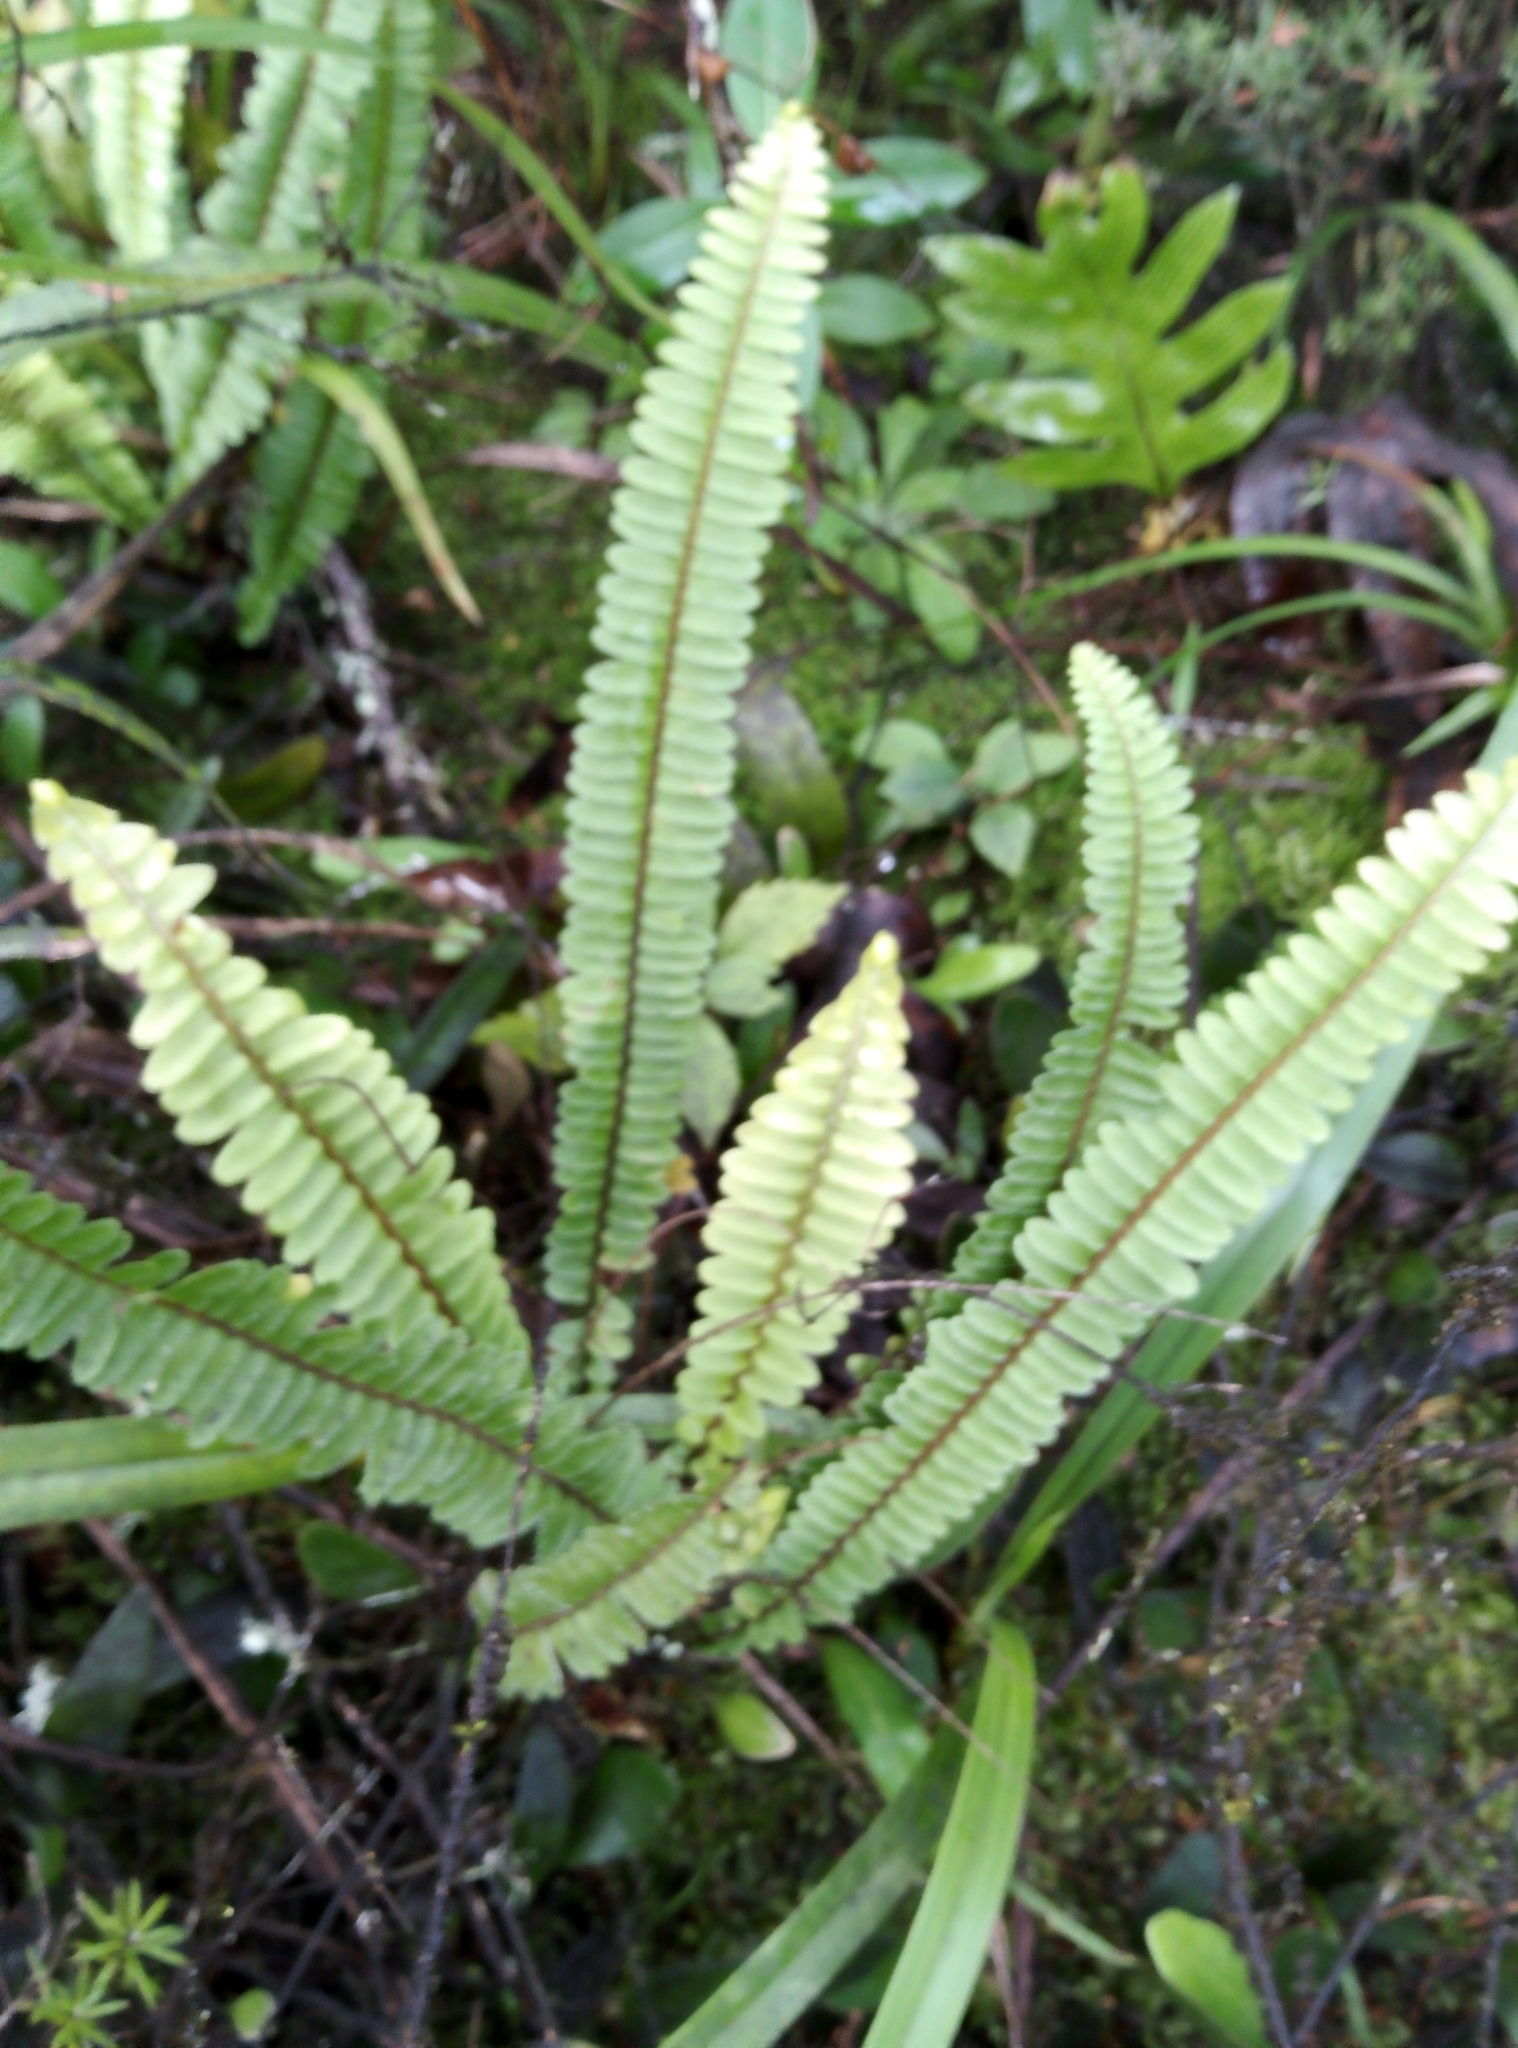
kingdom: Plantae
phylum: Tracheophyta
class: Polypodiopsida
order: Polypodiales
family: Nephrolepidaceae
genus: Nephrolepis
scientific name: Nephrolepis flexuosa
